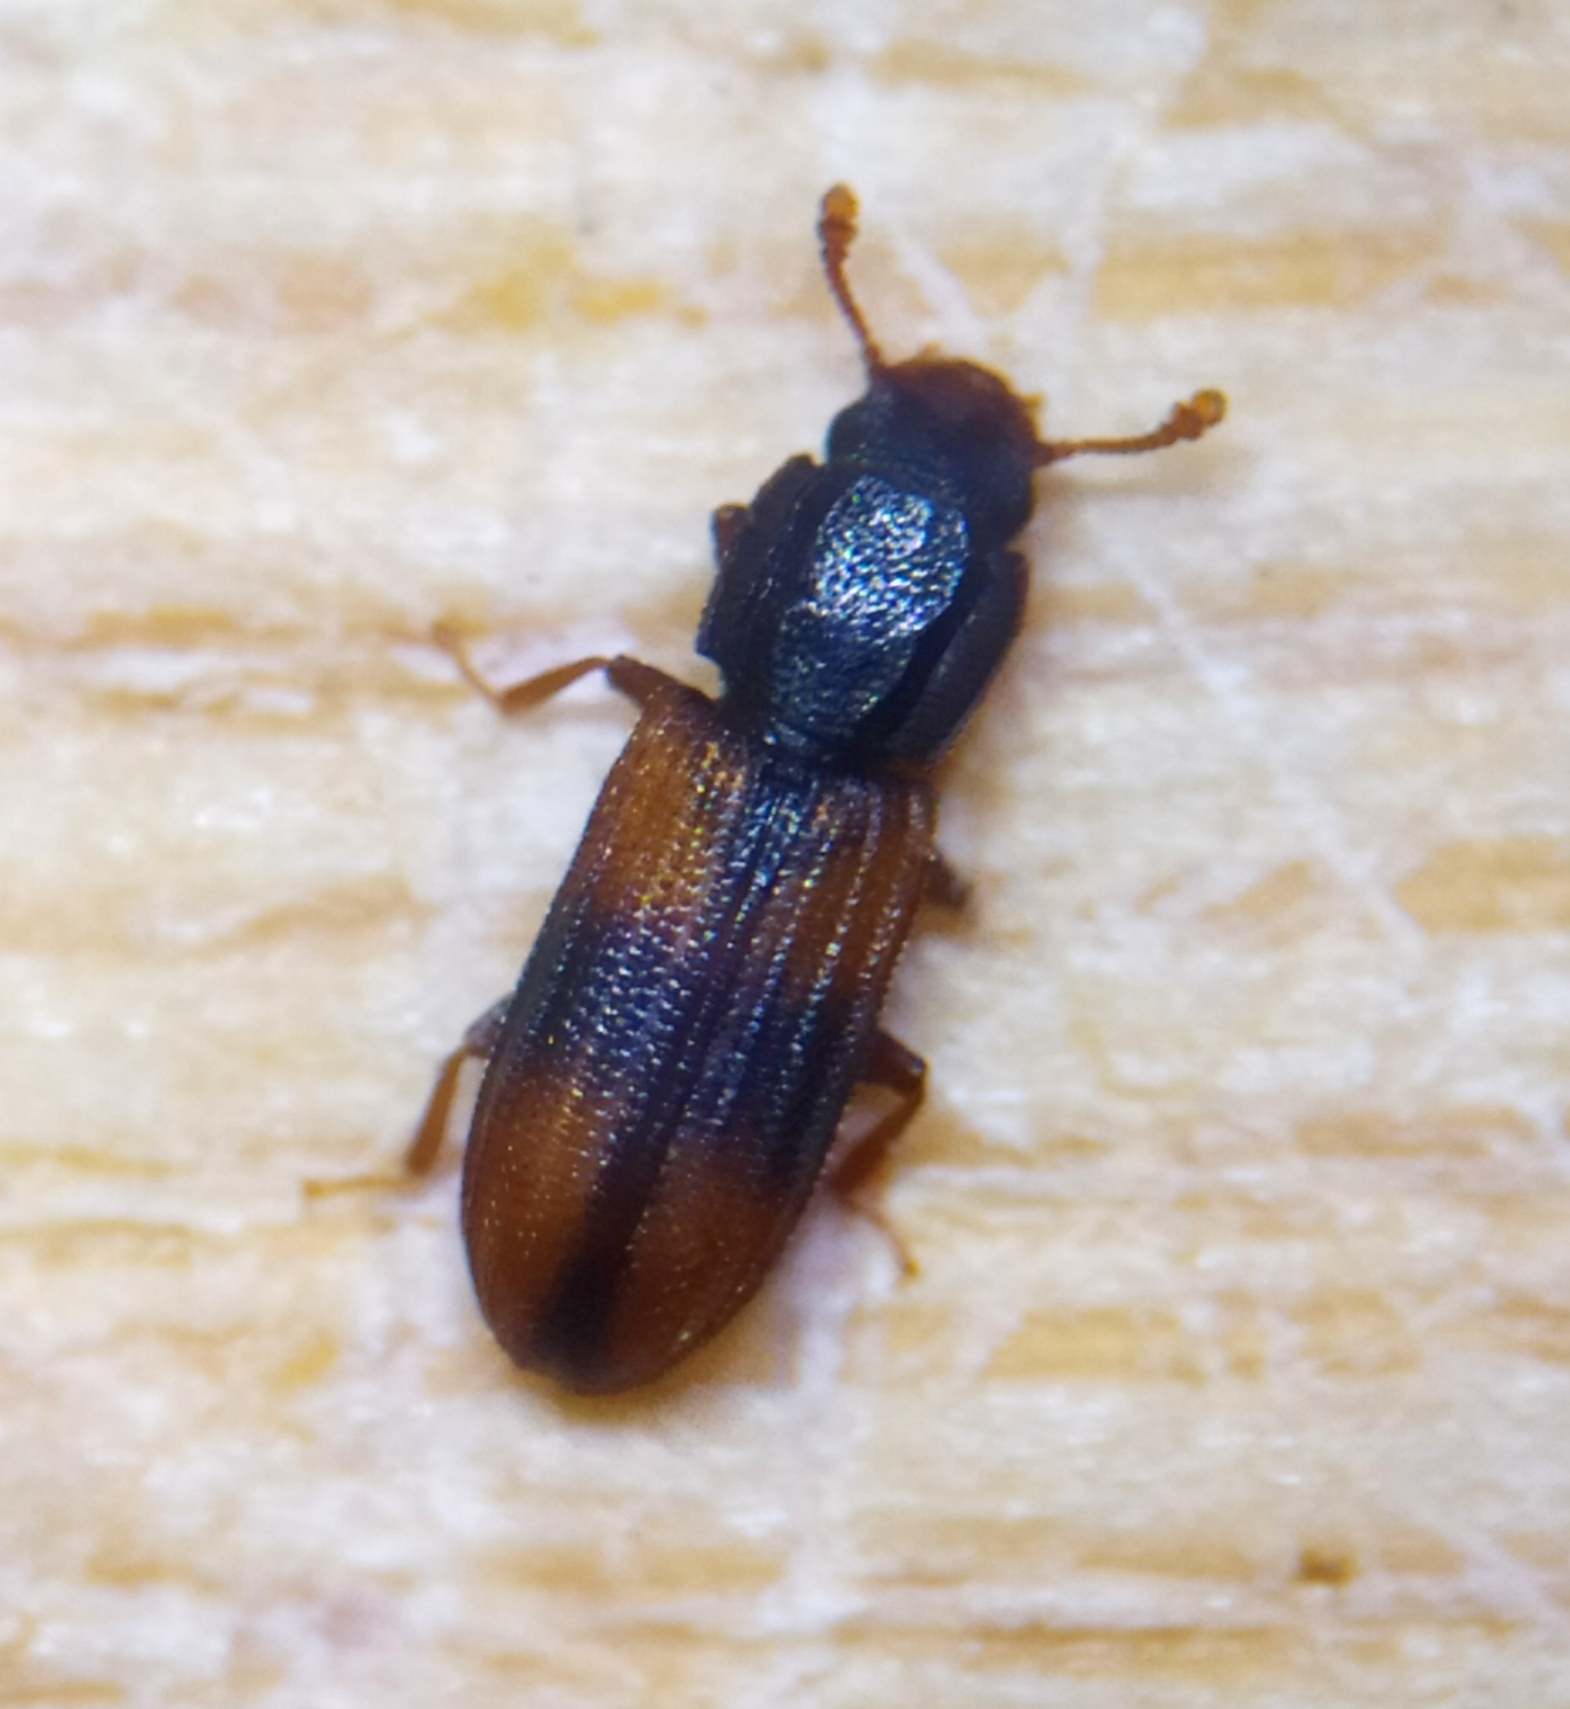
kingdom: Animalia
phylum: Arthropoda
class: Insecta
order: Coleoptera
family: Zopheridae
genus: Bitoma
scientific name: Bitoma crenata
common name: Bark beetle
